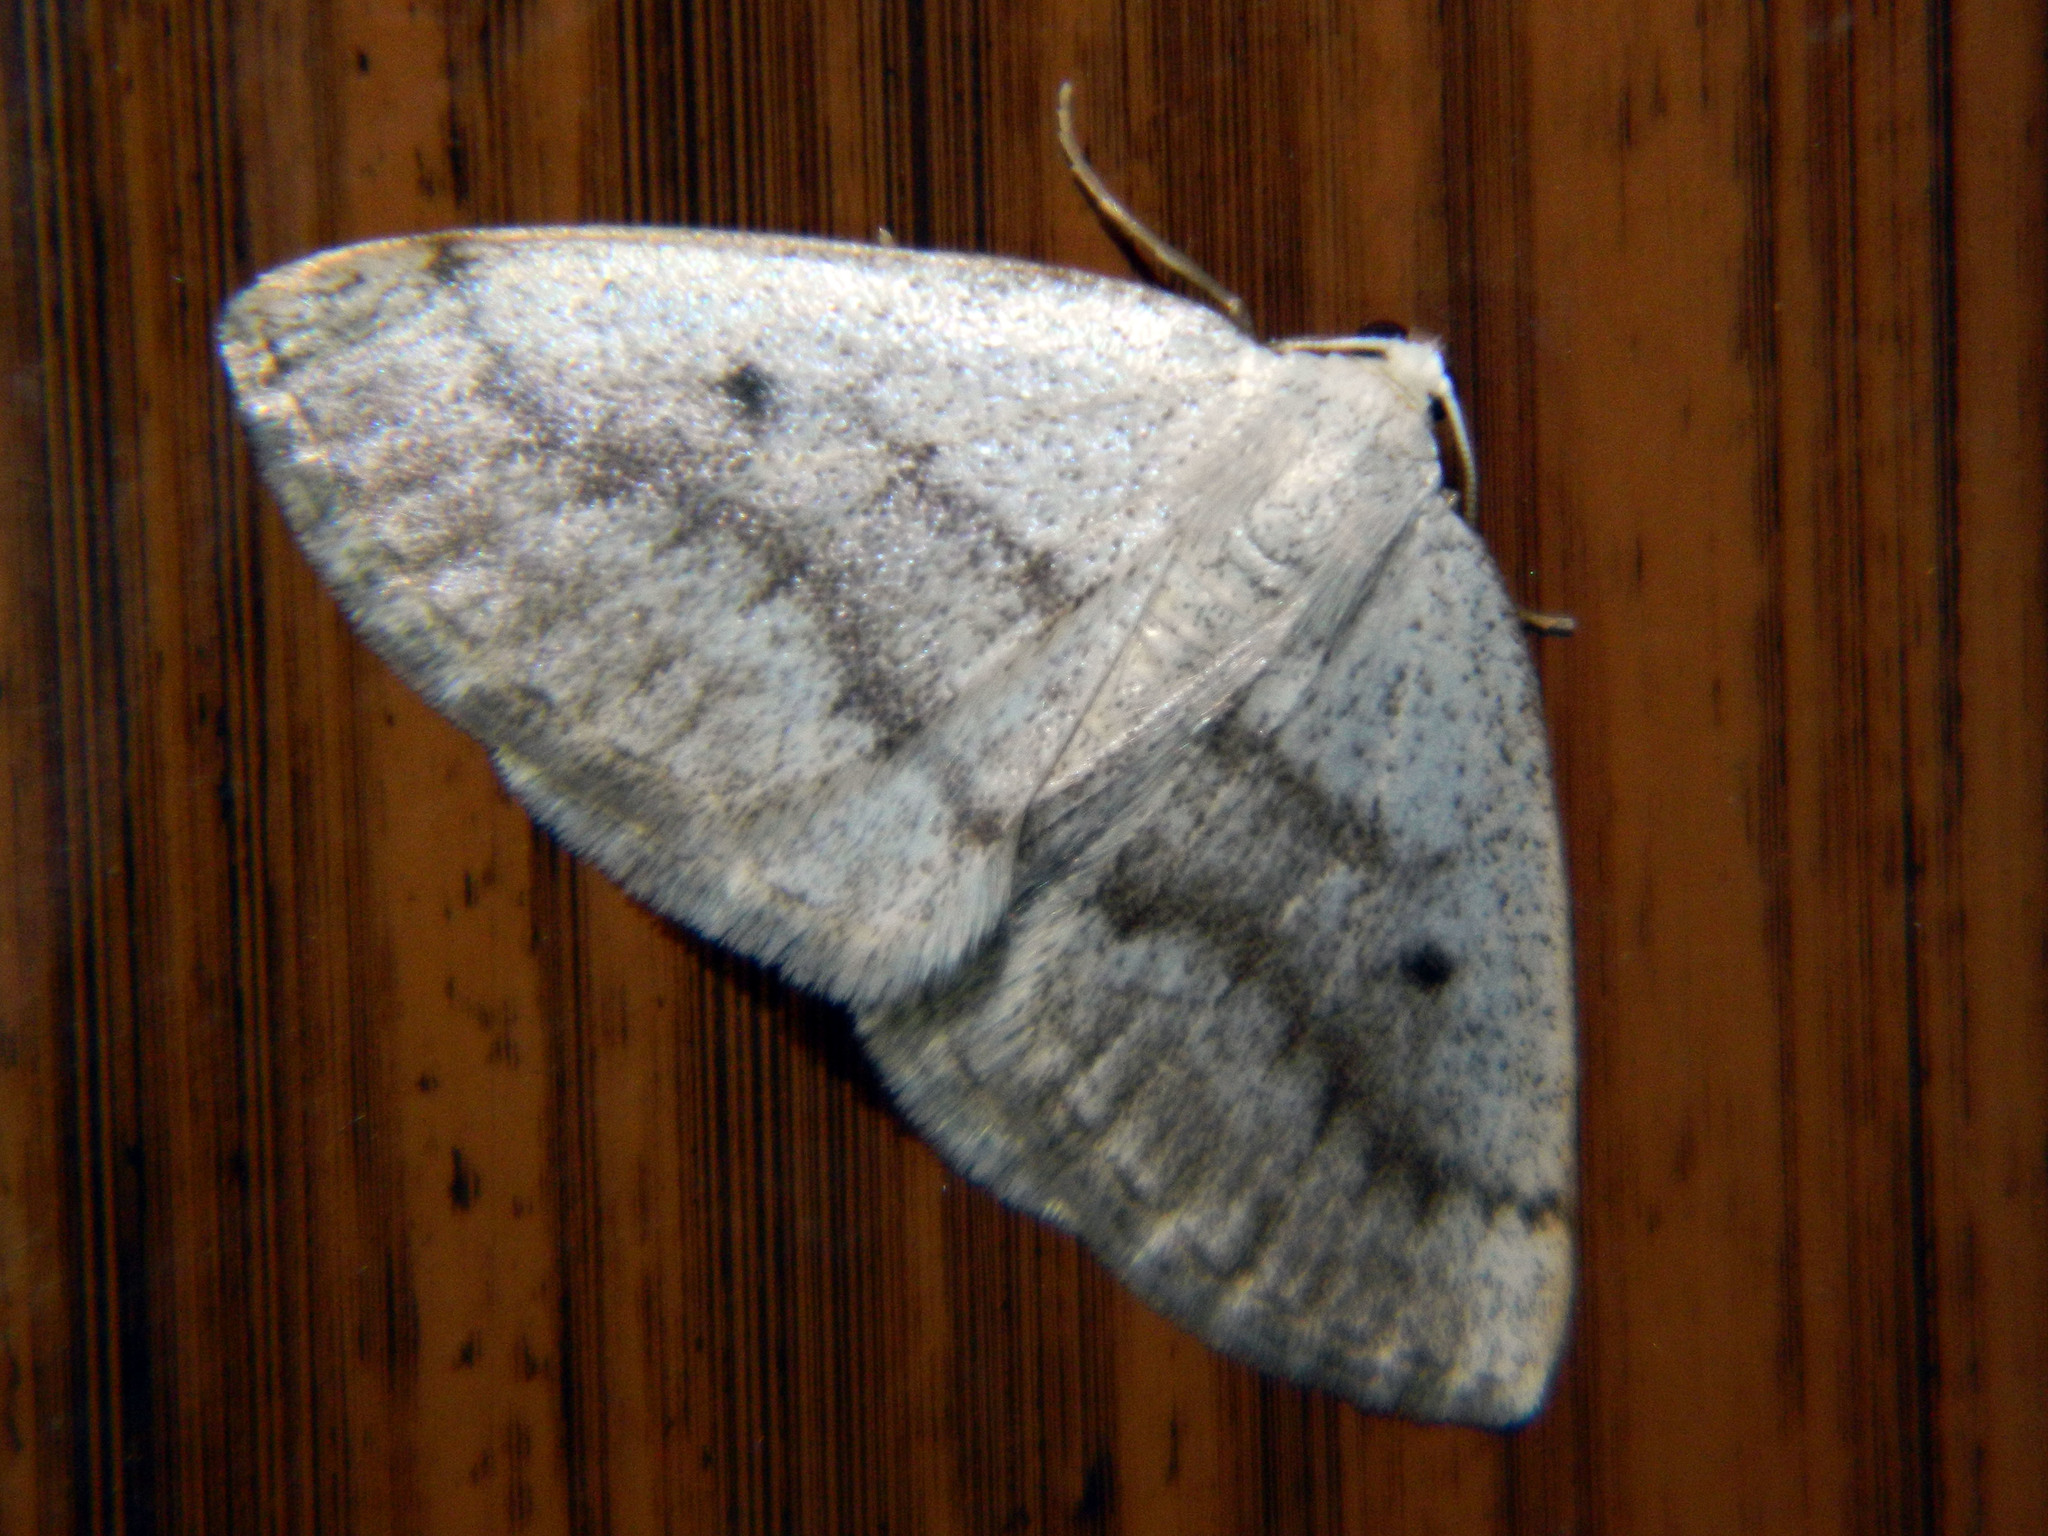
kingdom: Animalia
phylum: Arthropoda
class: Insecta
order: Lepidoptera
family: Geometridae
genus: Lomographa
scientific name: Lomographa glomeraria
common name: Gray spring moth
